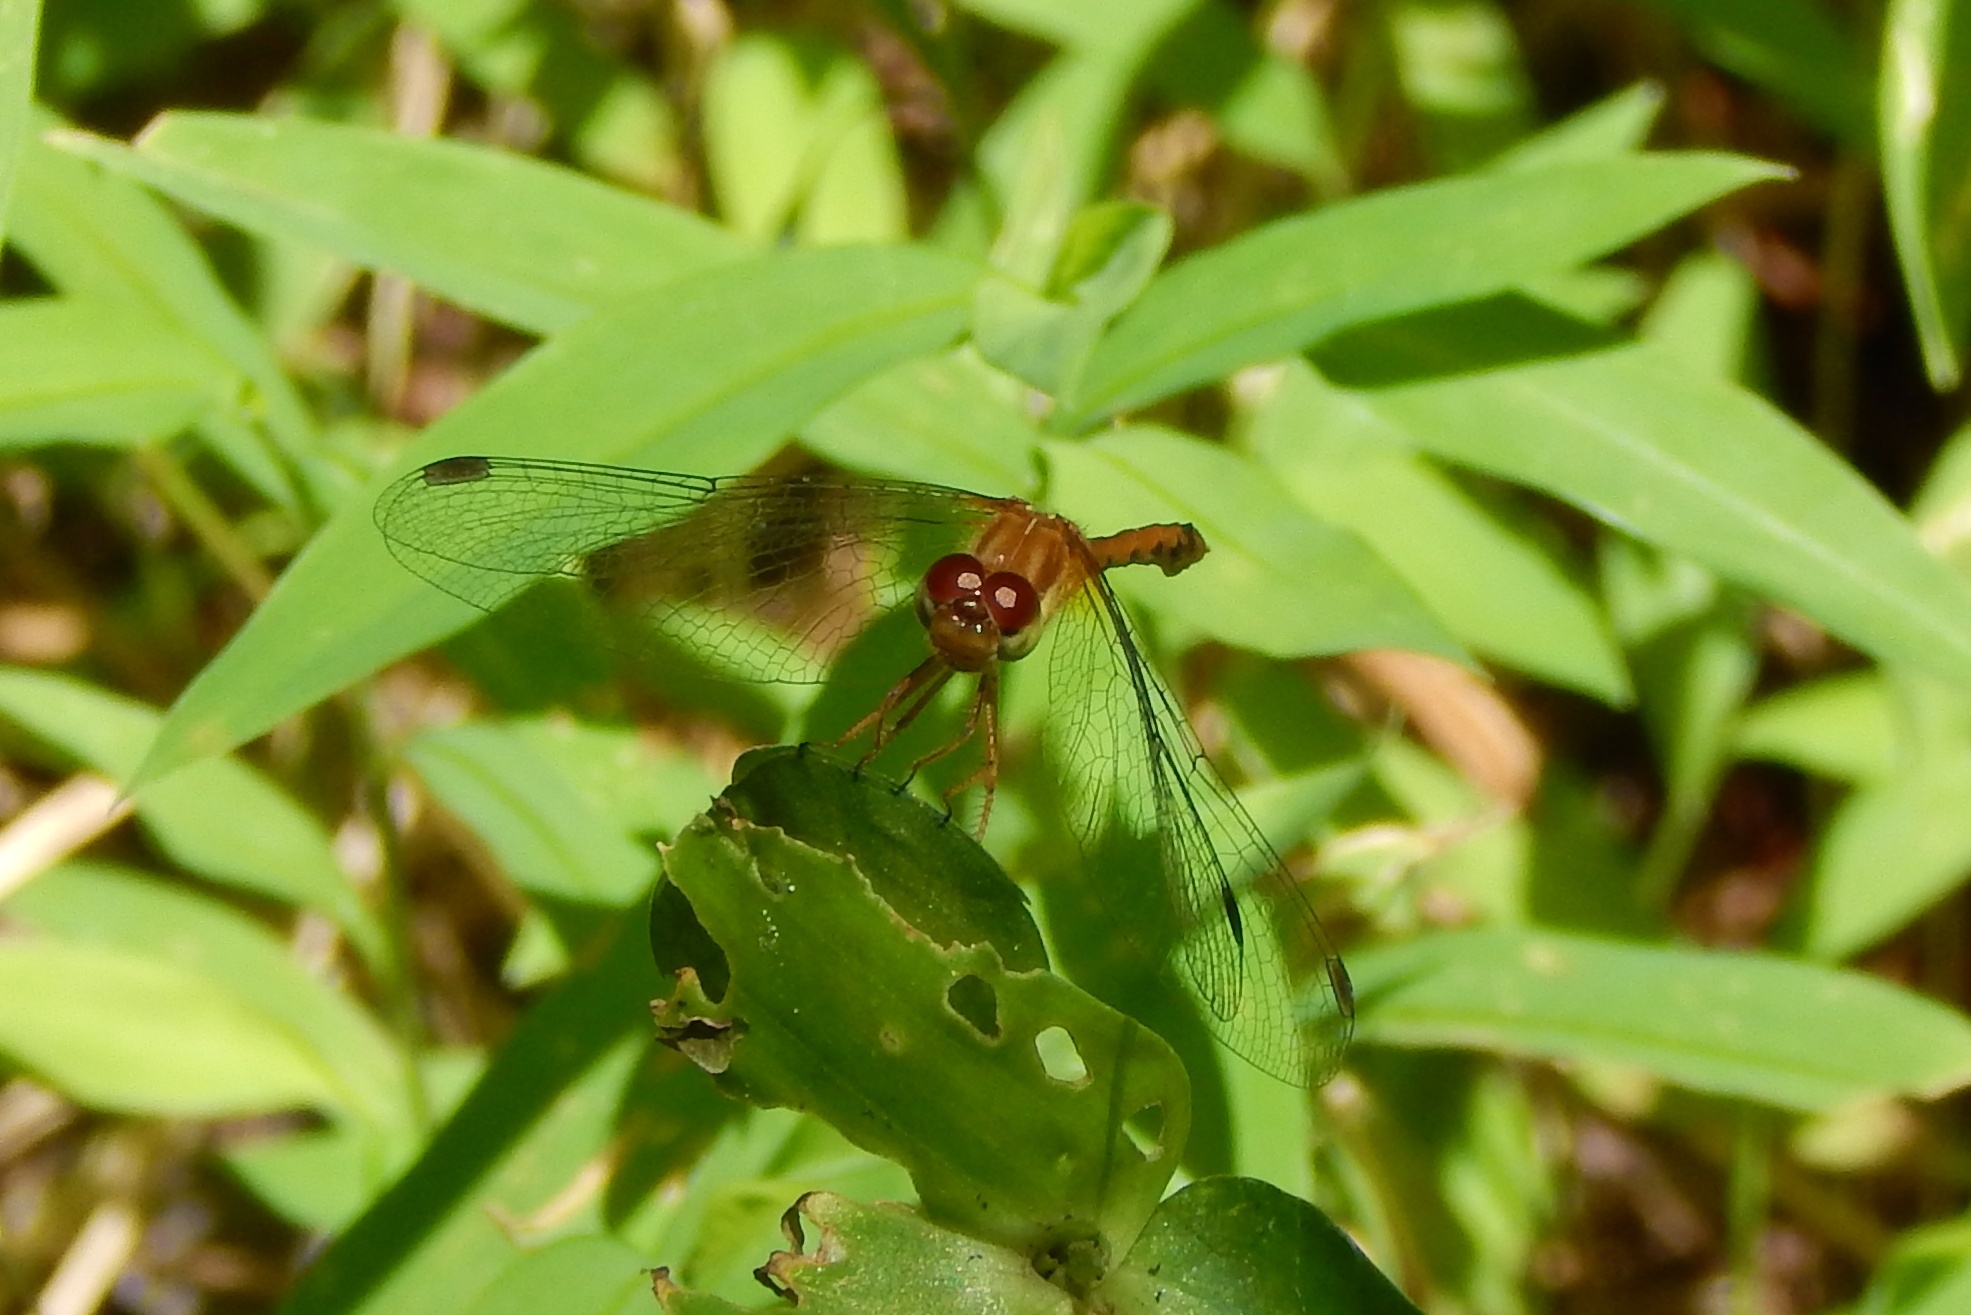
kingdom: Animalia
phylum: Arthropoda
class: Insecta
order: Odonata
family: Libellulidae
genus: Sympetrum
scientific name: Sympetrum vicinum
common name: Autumn meadowhawk
